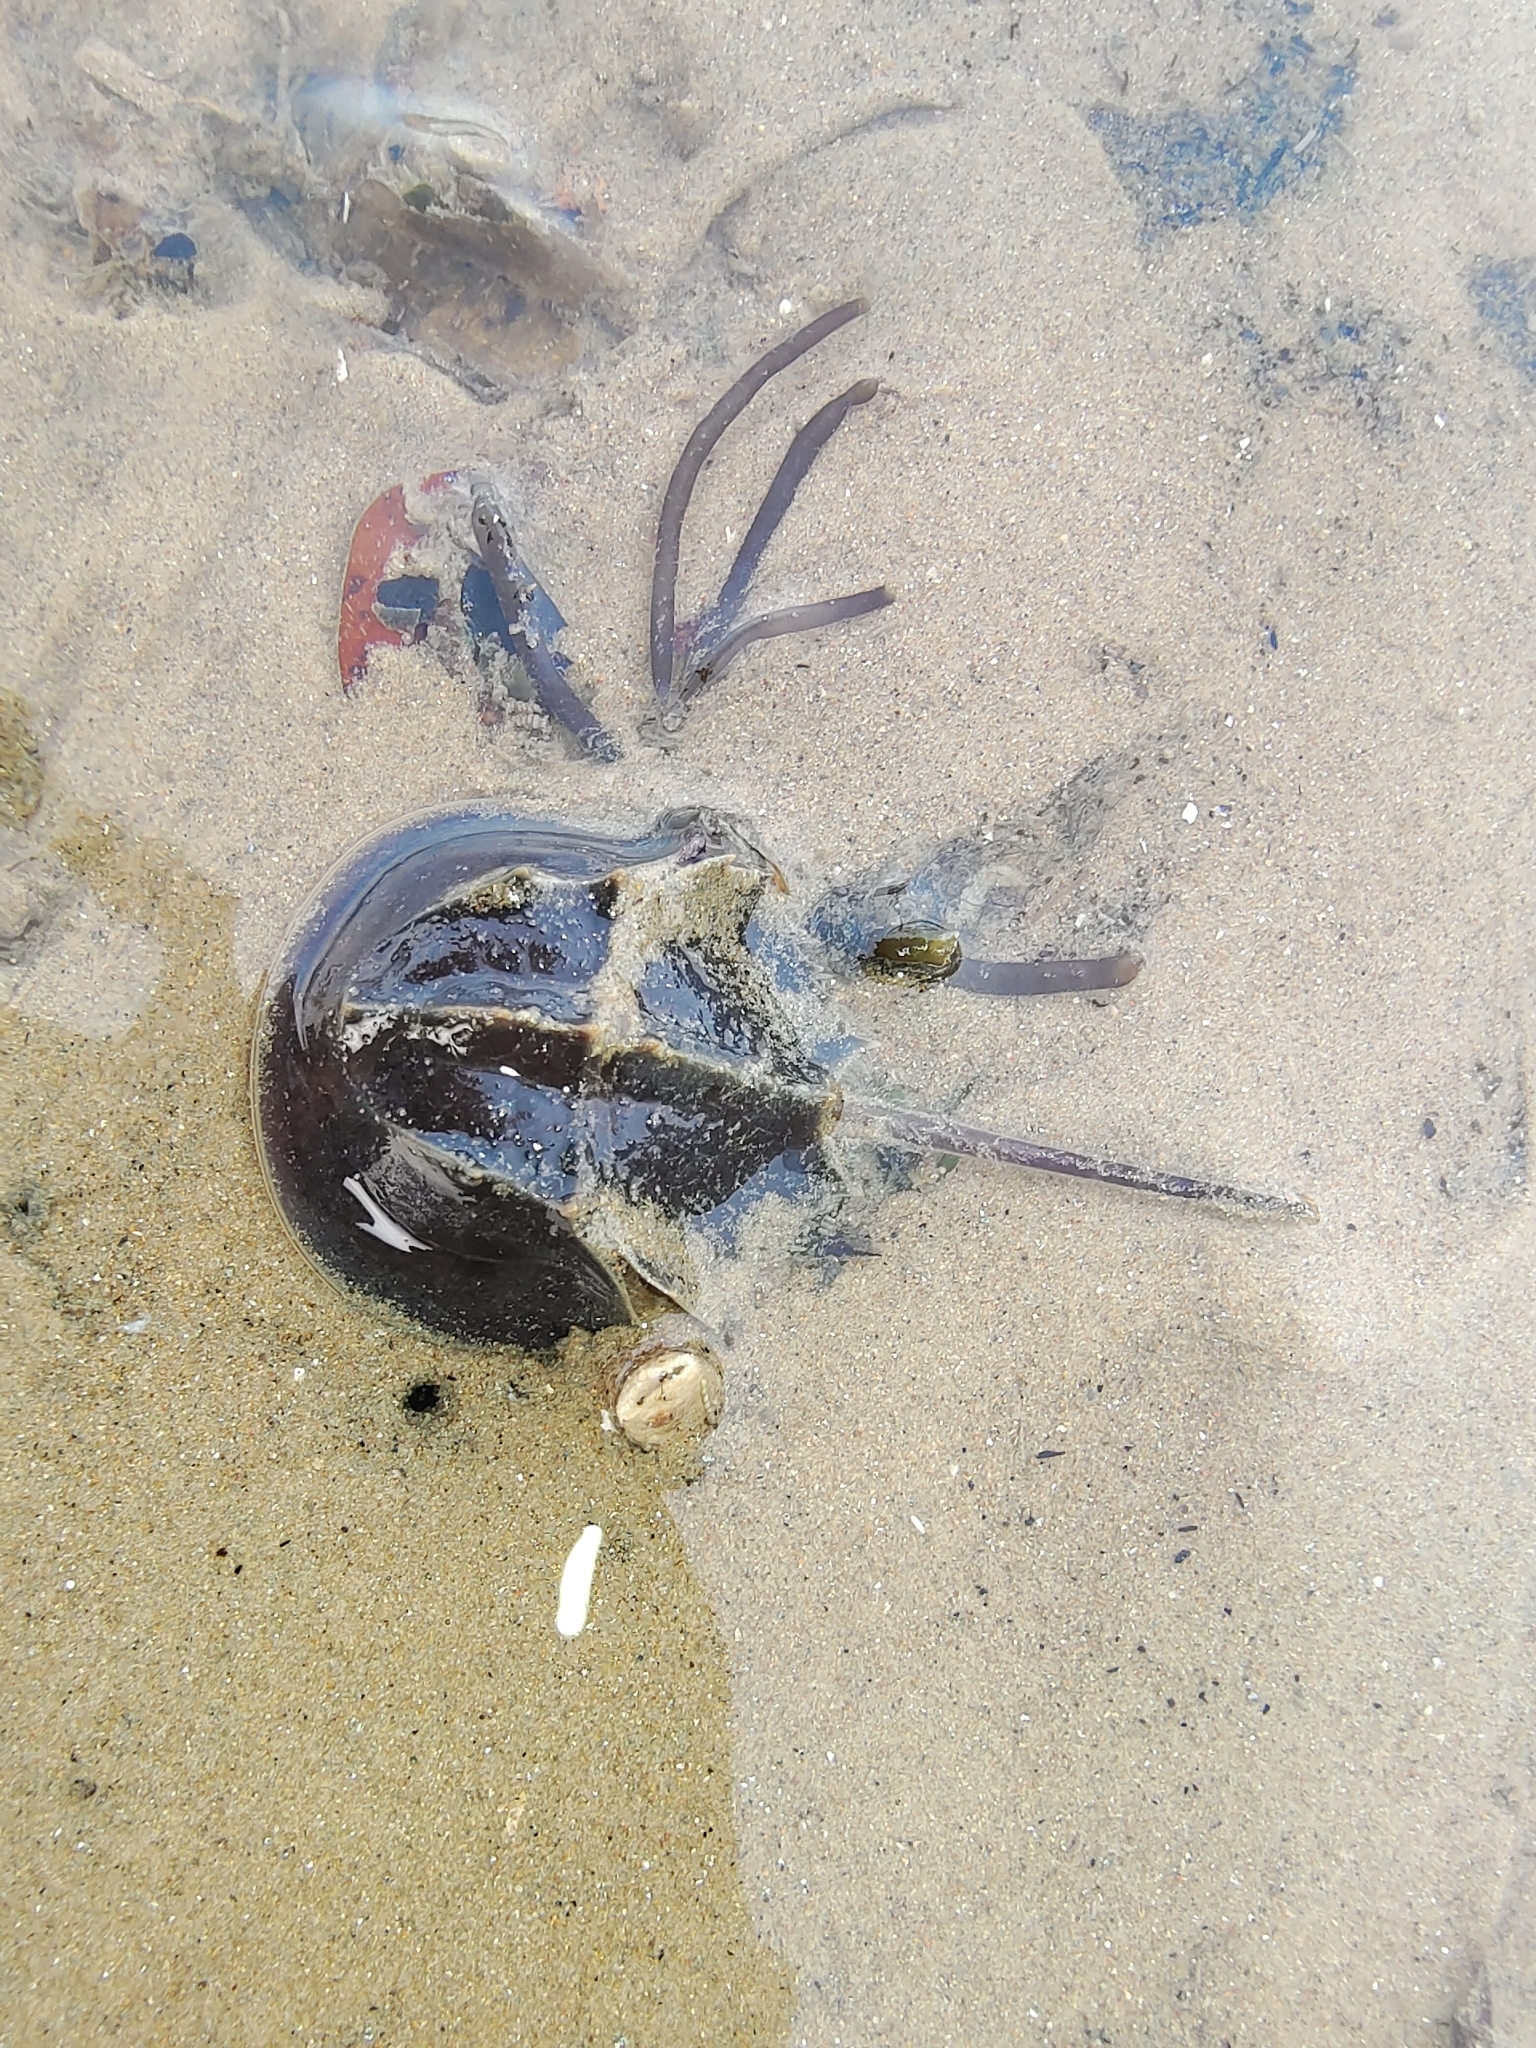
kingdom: Animalia
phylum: Arthropoda
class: Merostomata
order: Xiphosurida
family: Limulidae
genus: Tachypleus
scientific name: Tachypleus gigas
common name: Coastal horseshoe crab
